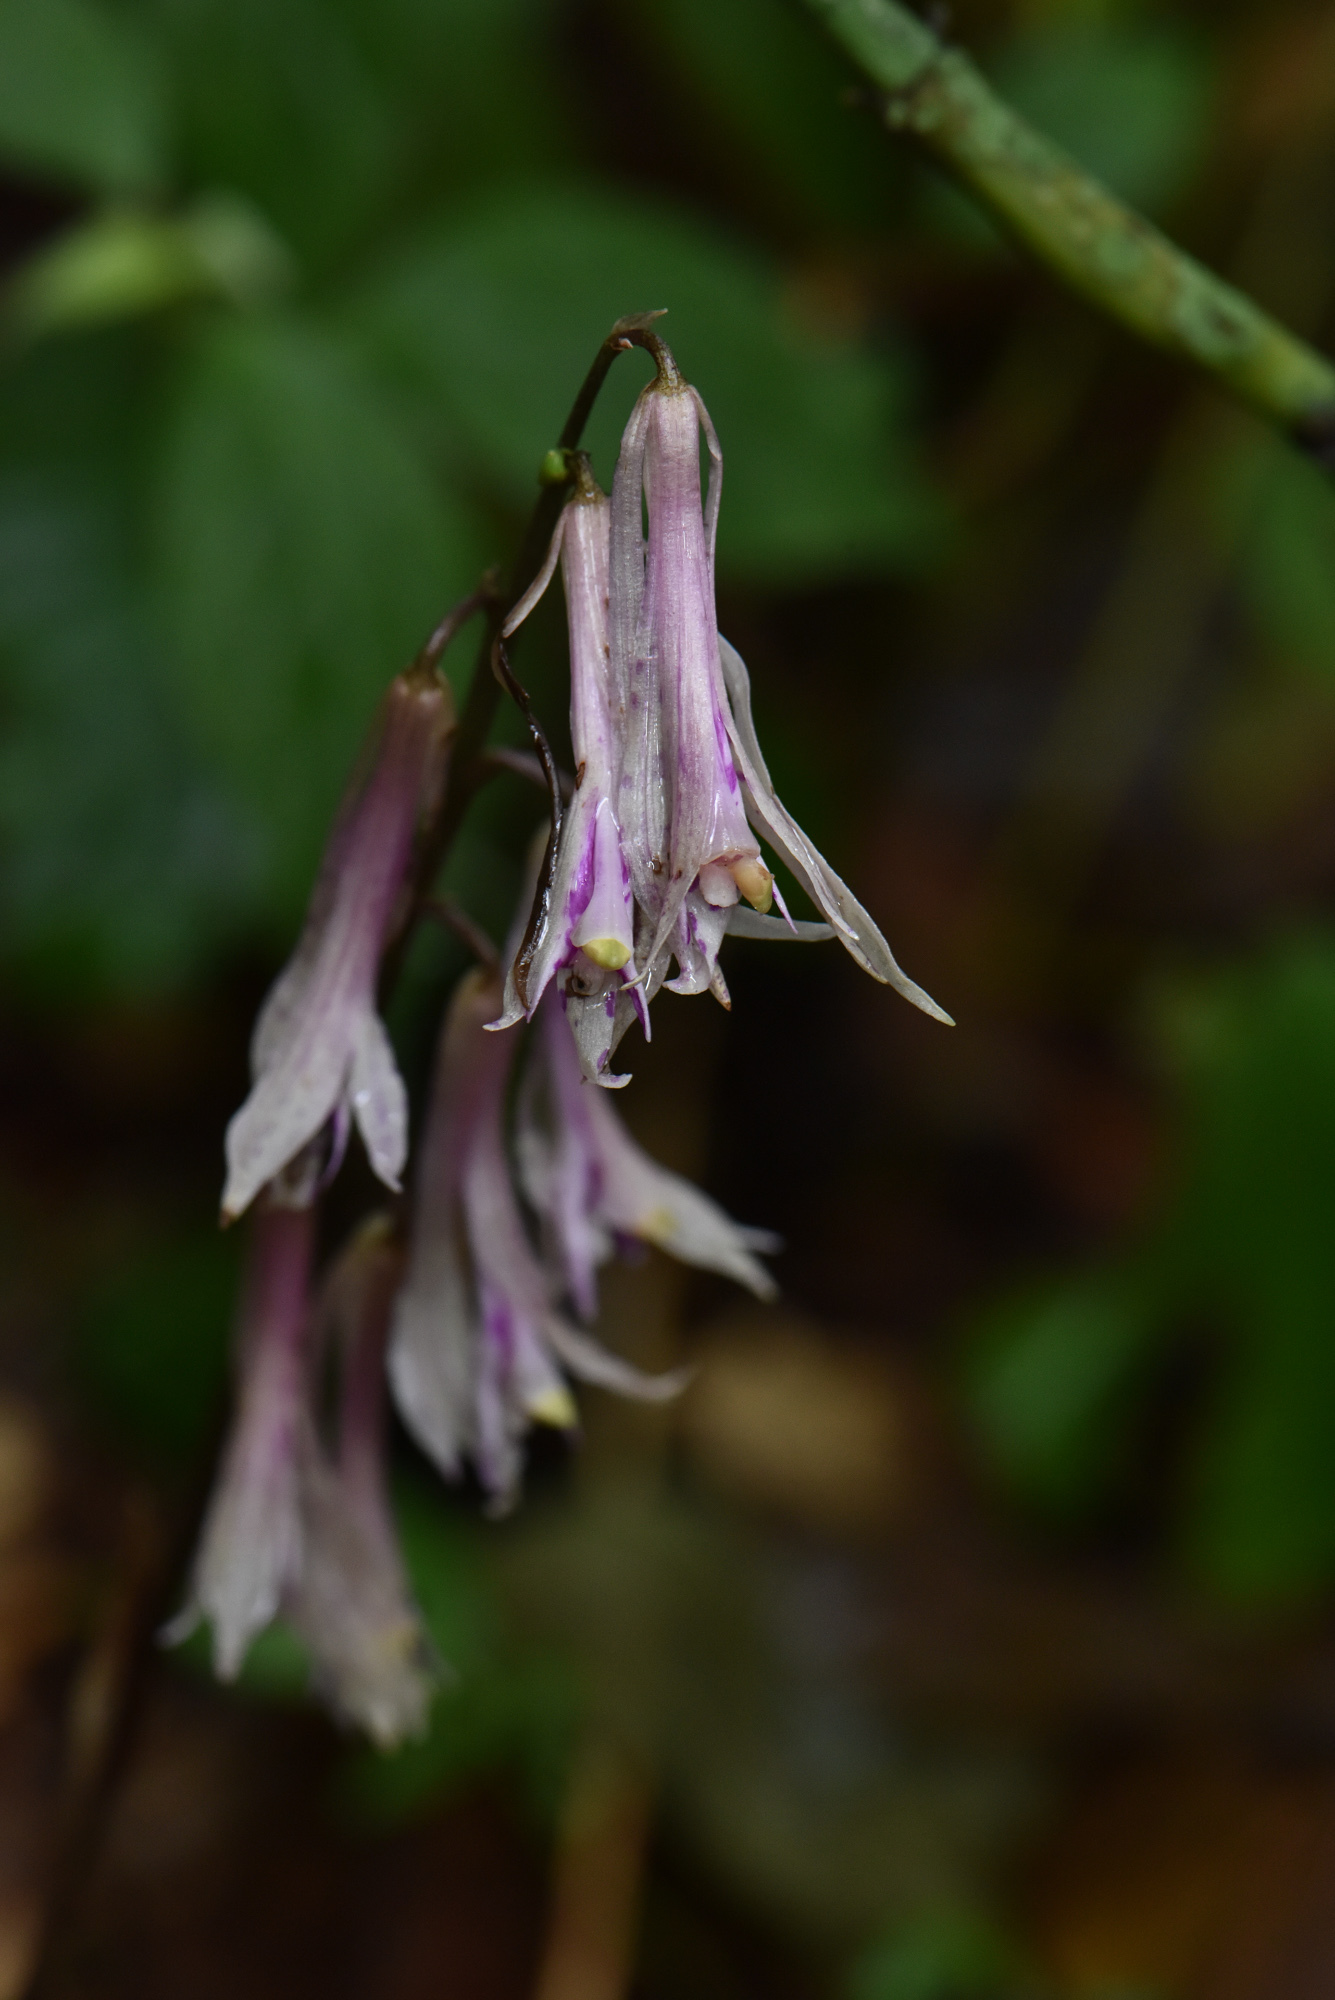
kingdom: Plantae
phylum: Tracheophyta
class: Liliopsida
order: Asparagales
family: Orchidaceae
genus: Cremastra
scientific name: Cremastra appendiculata
